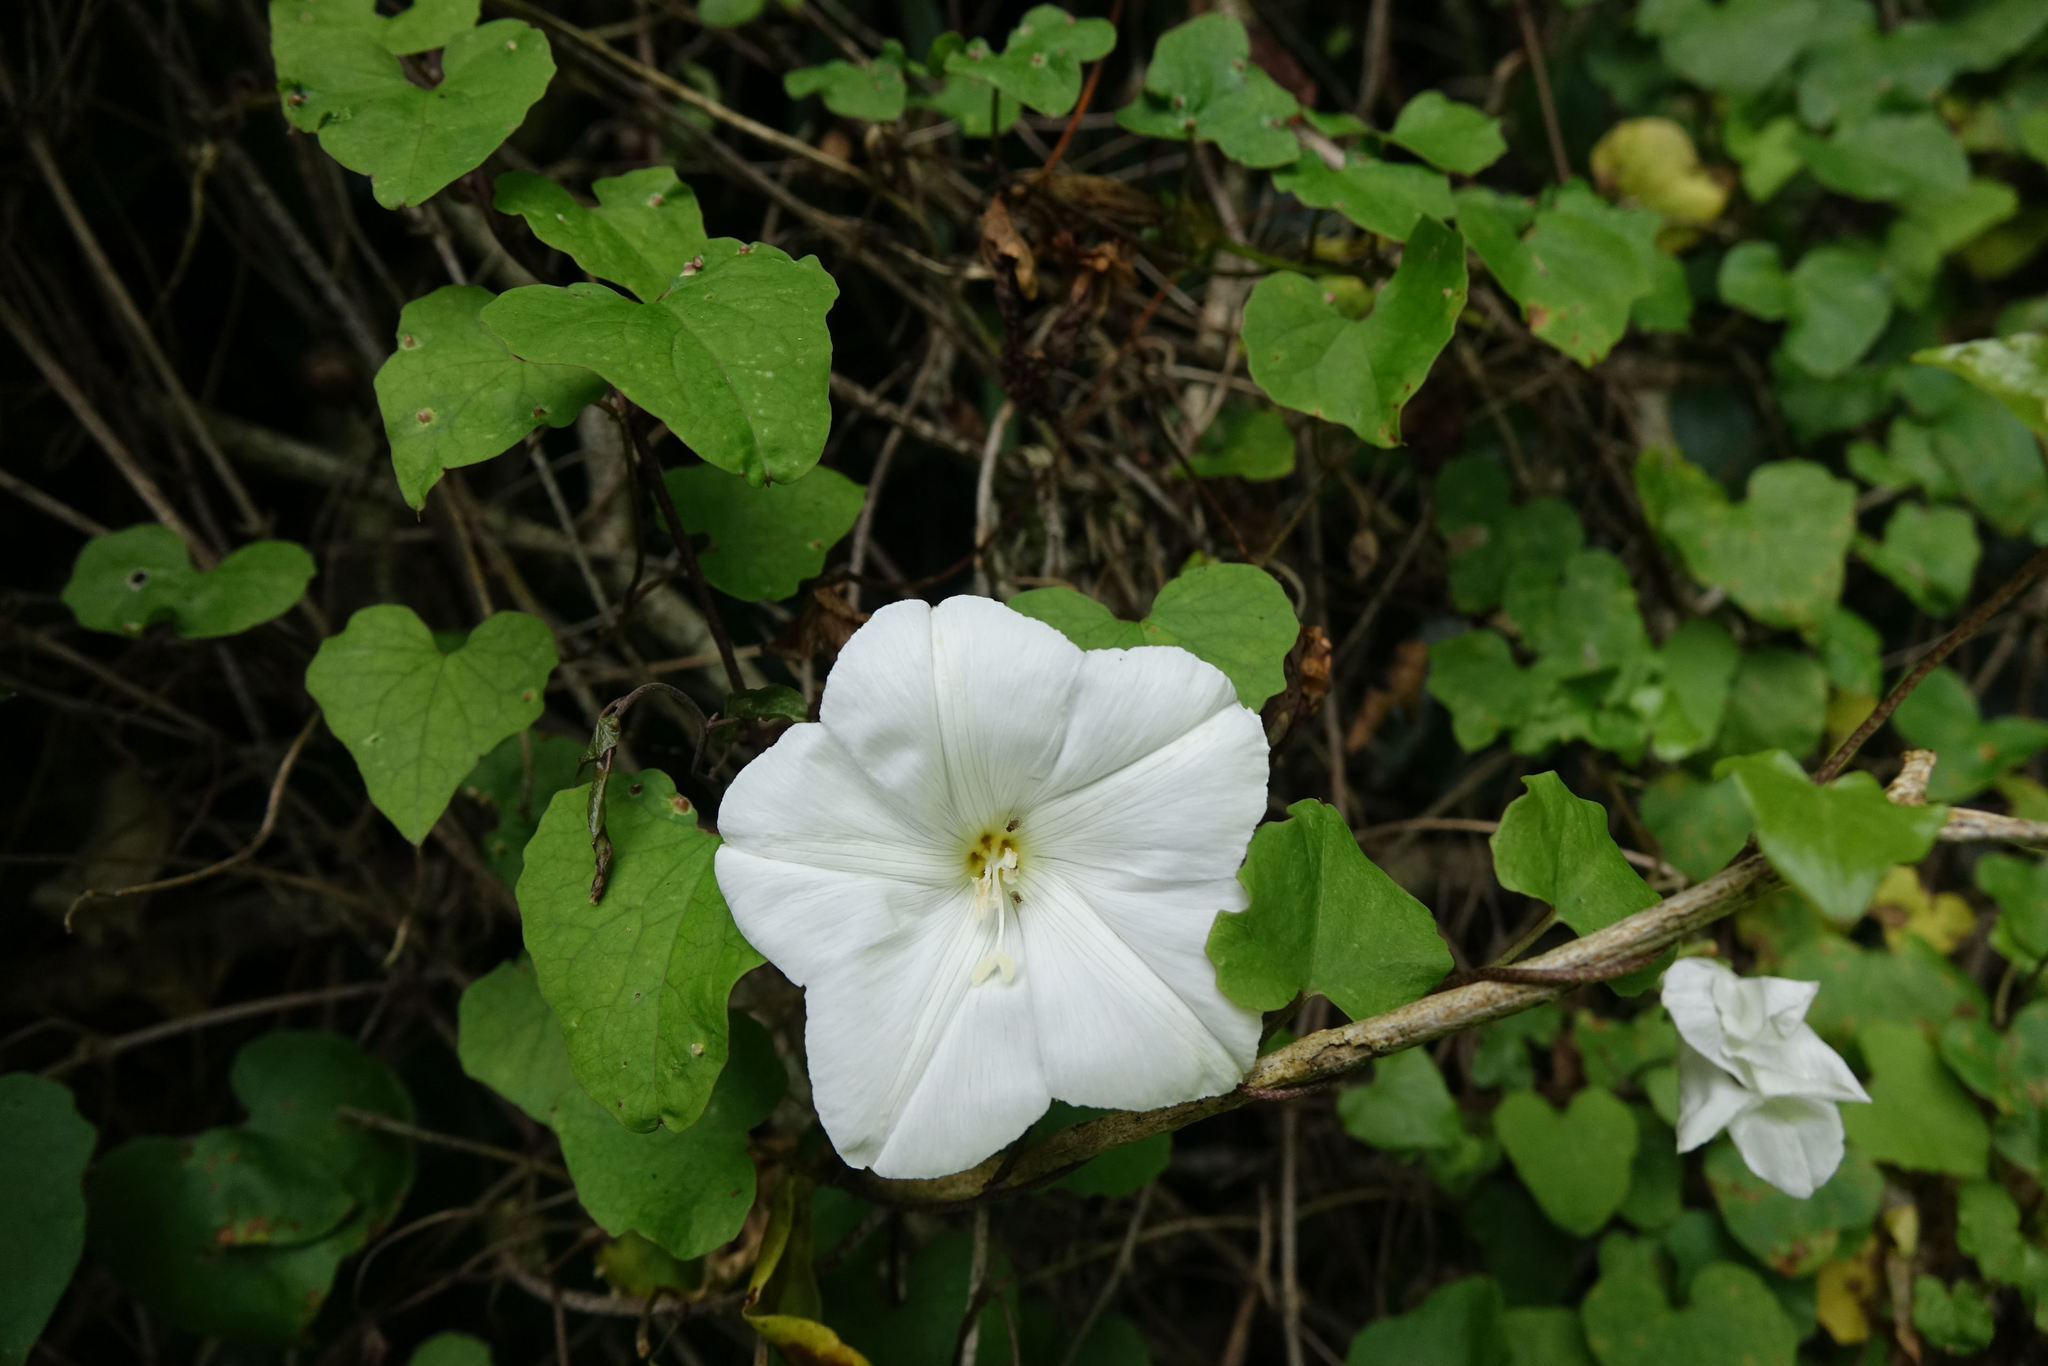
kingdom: Plantae
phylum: Tracheophyta
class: Magnoliopsida
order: Solanales
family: Convolvulaceae
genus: Calystegia
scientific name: Calystegia tuguriorum
